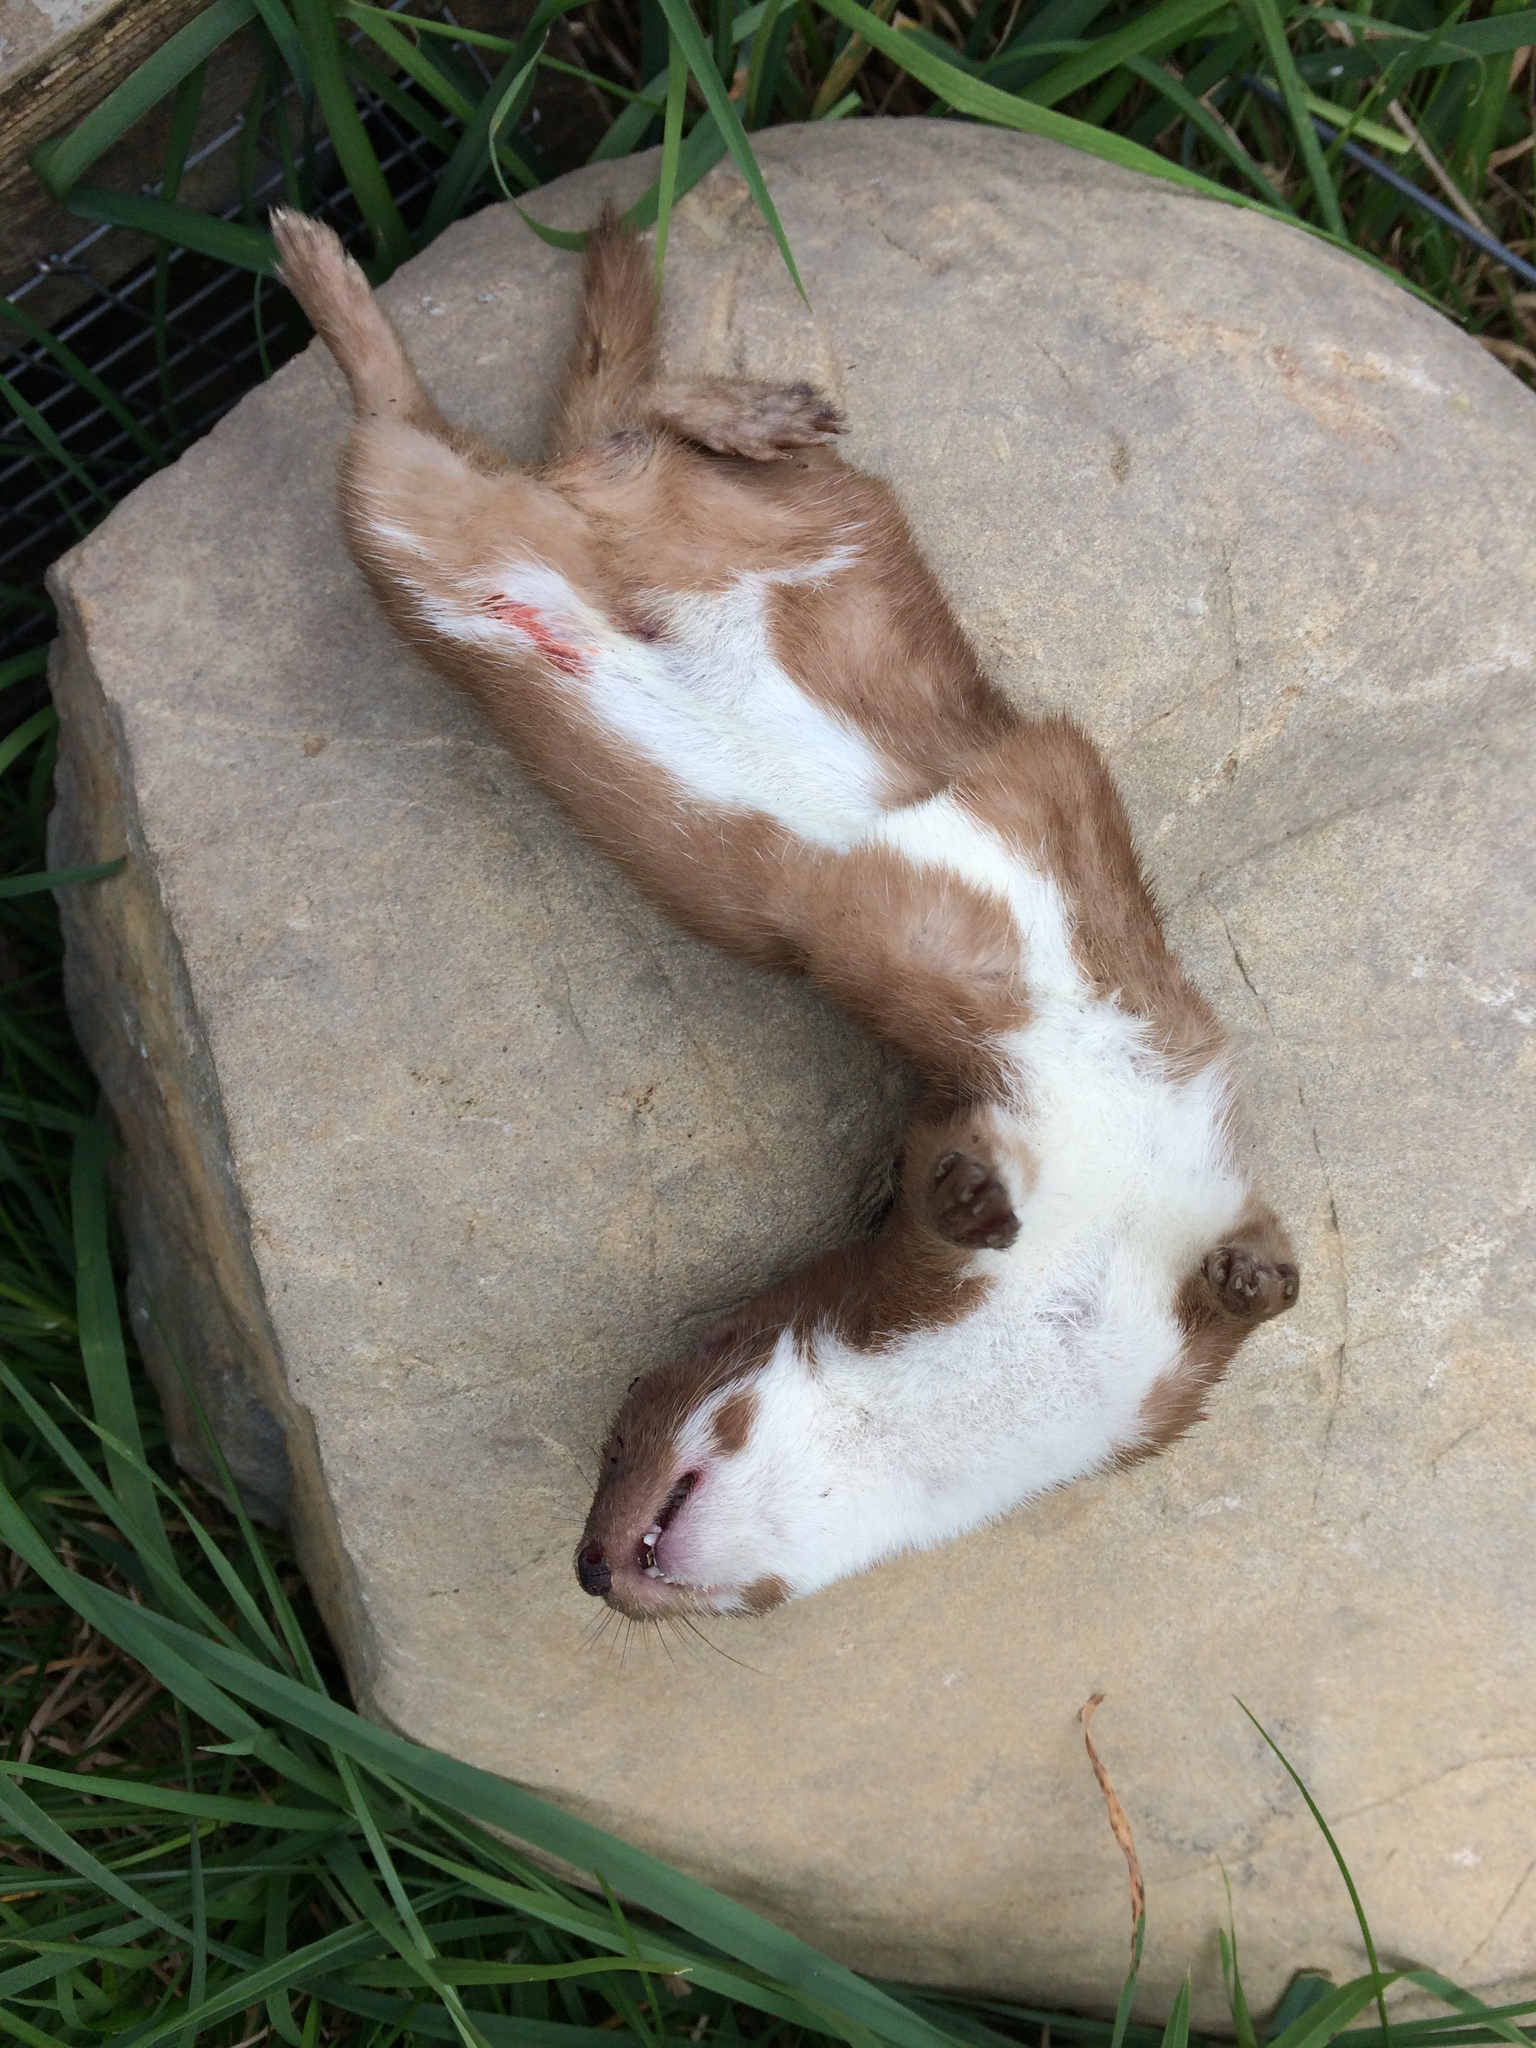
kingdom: Animalia
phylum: Chordata
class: Mammalia
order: Carnivora
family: Mustelidae
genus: Mustela
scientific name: Mustela nivalis
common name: Least weasel
